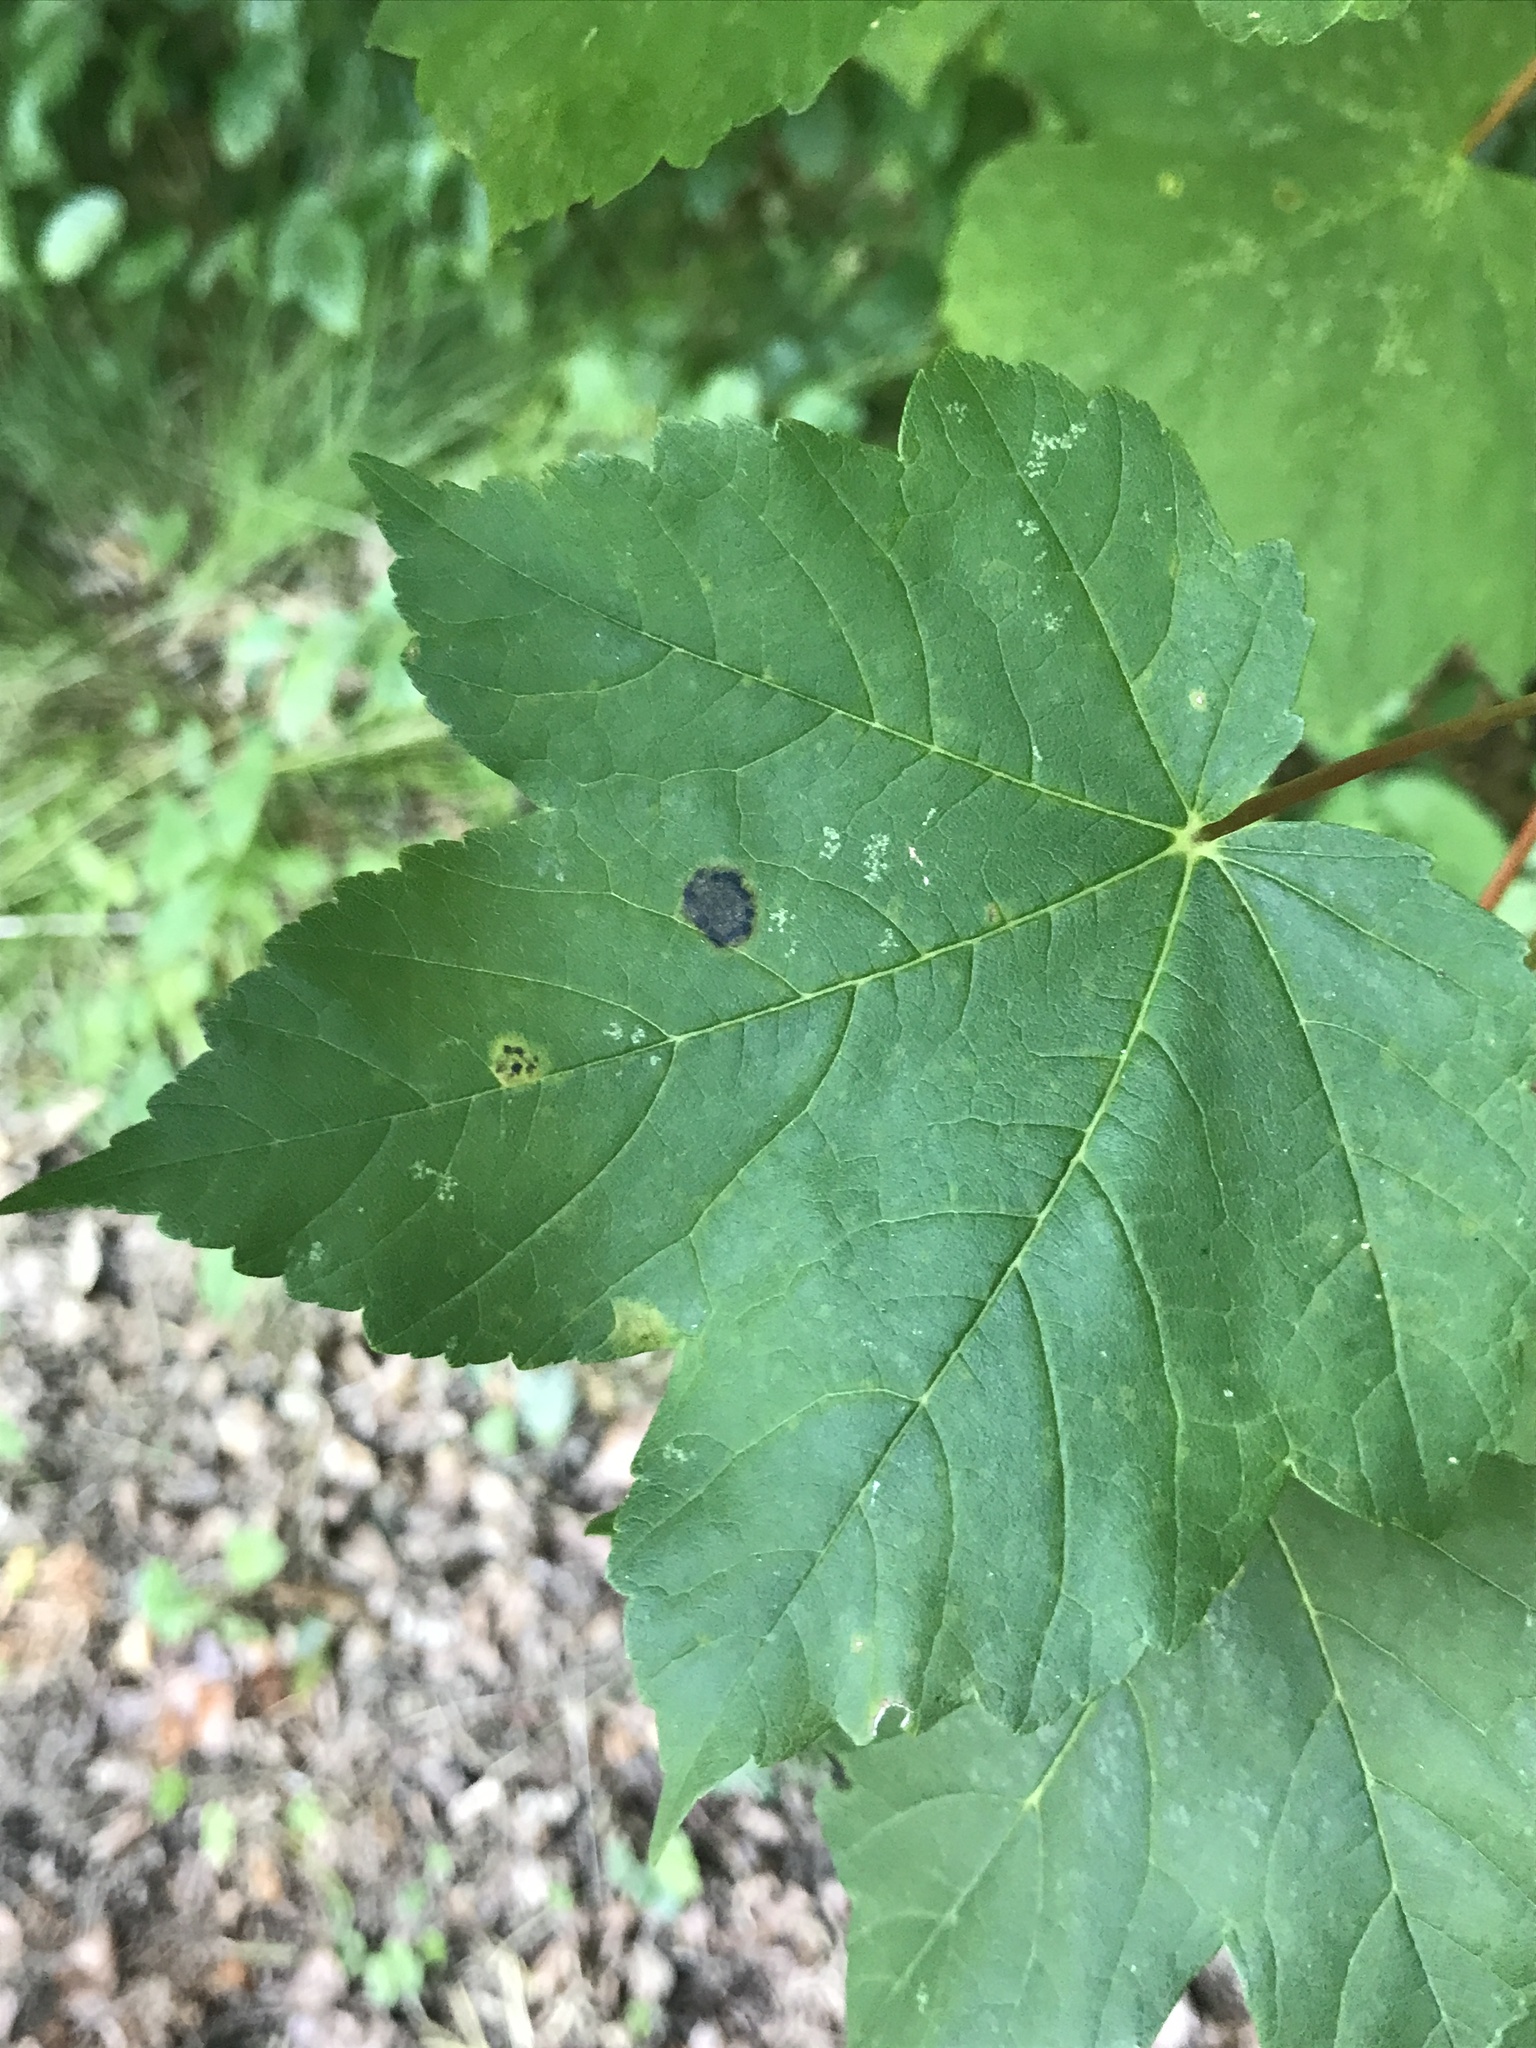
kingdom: Fungi
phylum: Ascomycota
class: Leotiomycetes
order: Rhytismatales
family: Rhytismataceae
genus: Rhytisma
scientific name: Rhytisma acerinum
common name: European tar spot
